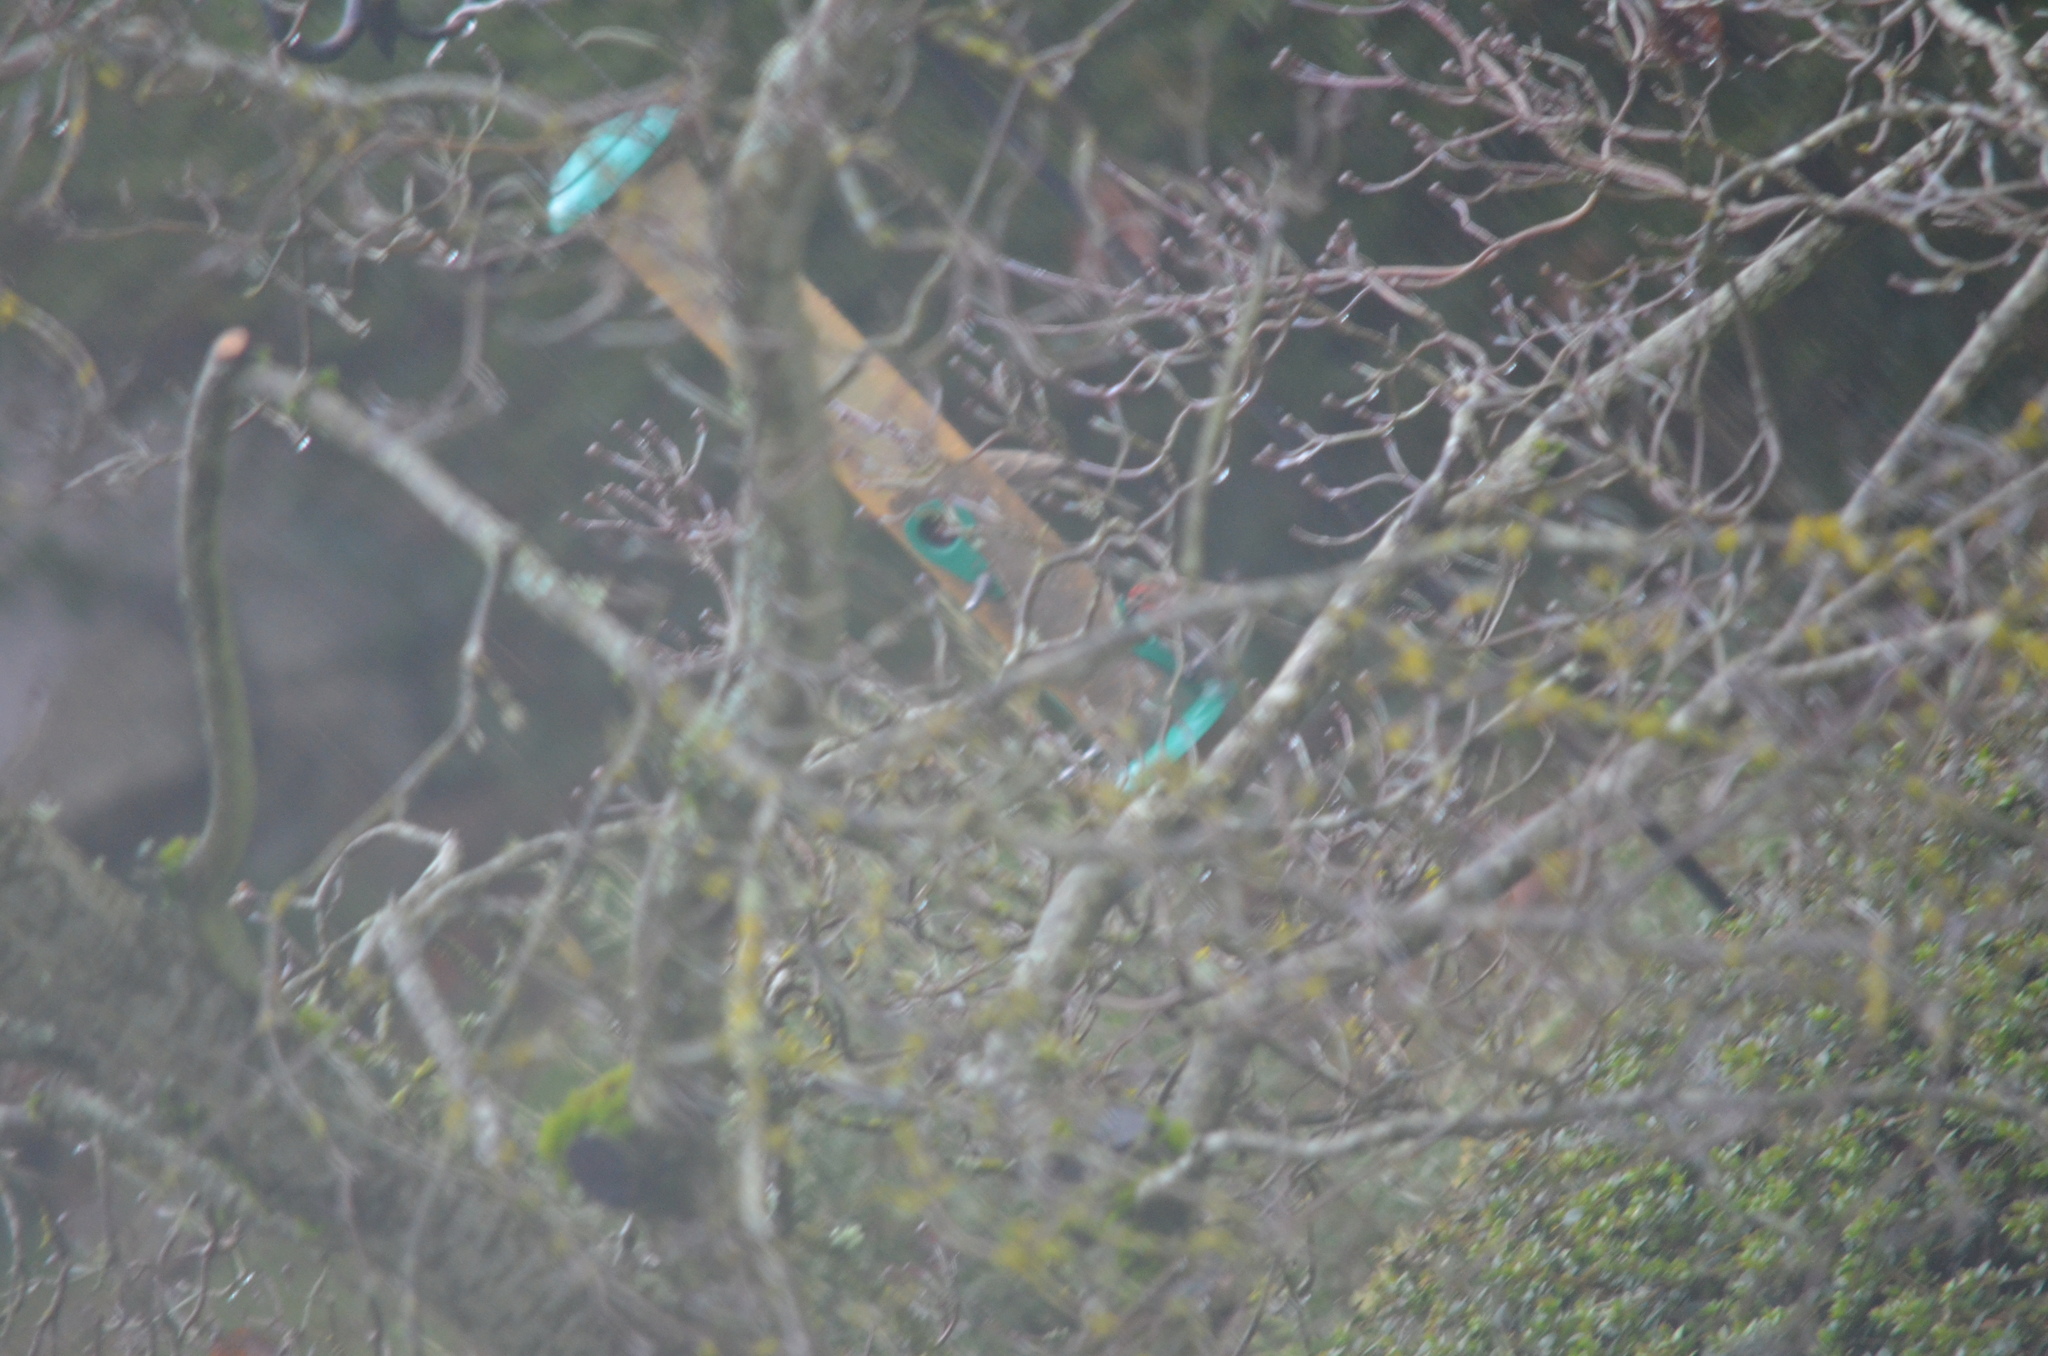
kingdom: Animalia
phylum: Chordata
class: Aves
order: Passeriformes
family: Fringillidae
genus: Haemorhous
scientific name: Haemorhous mexicanus
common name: House finch
